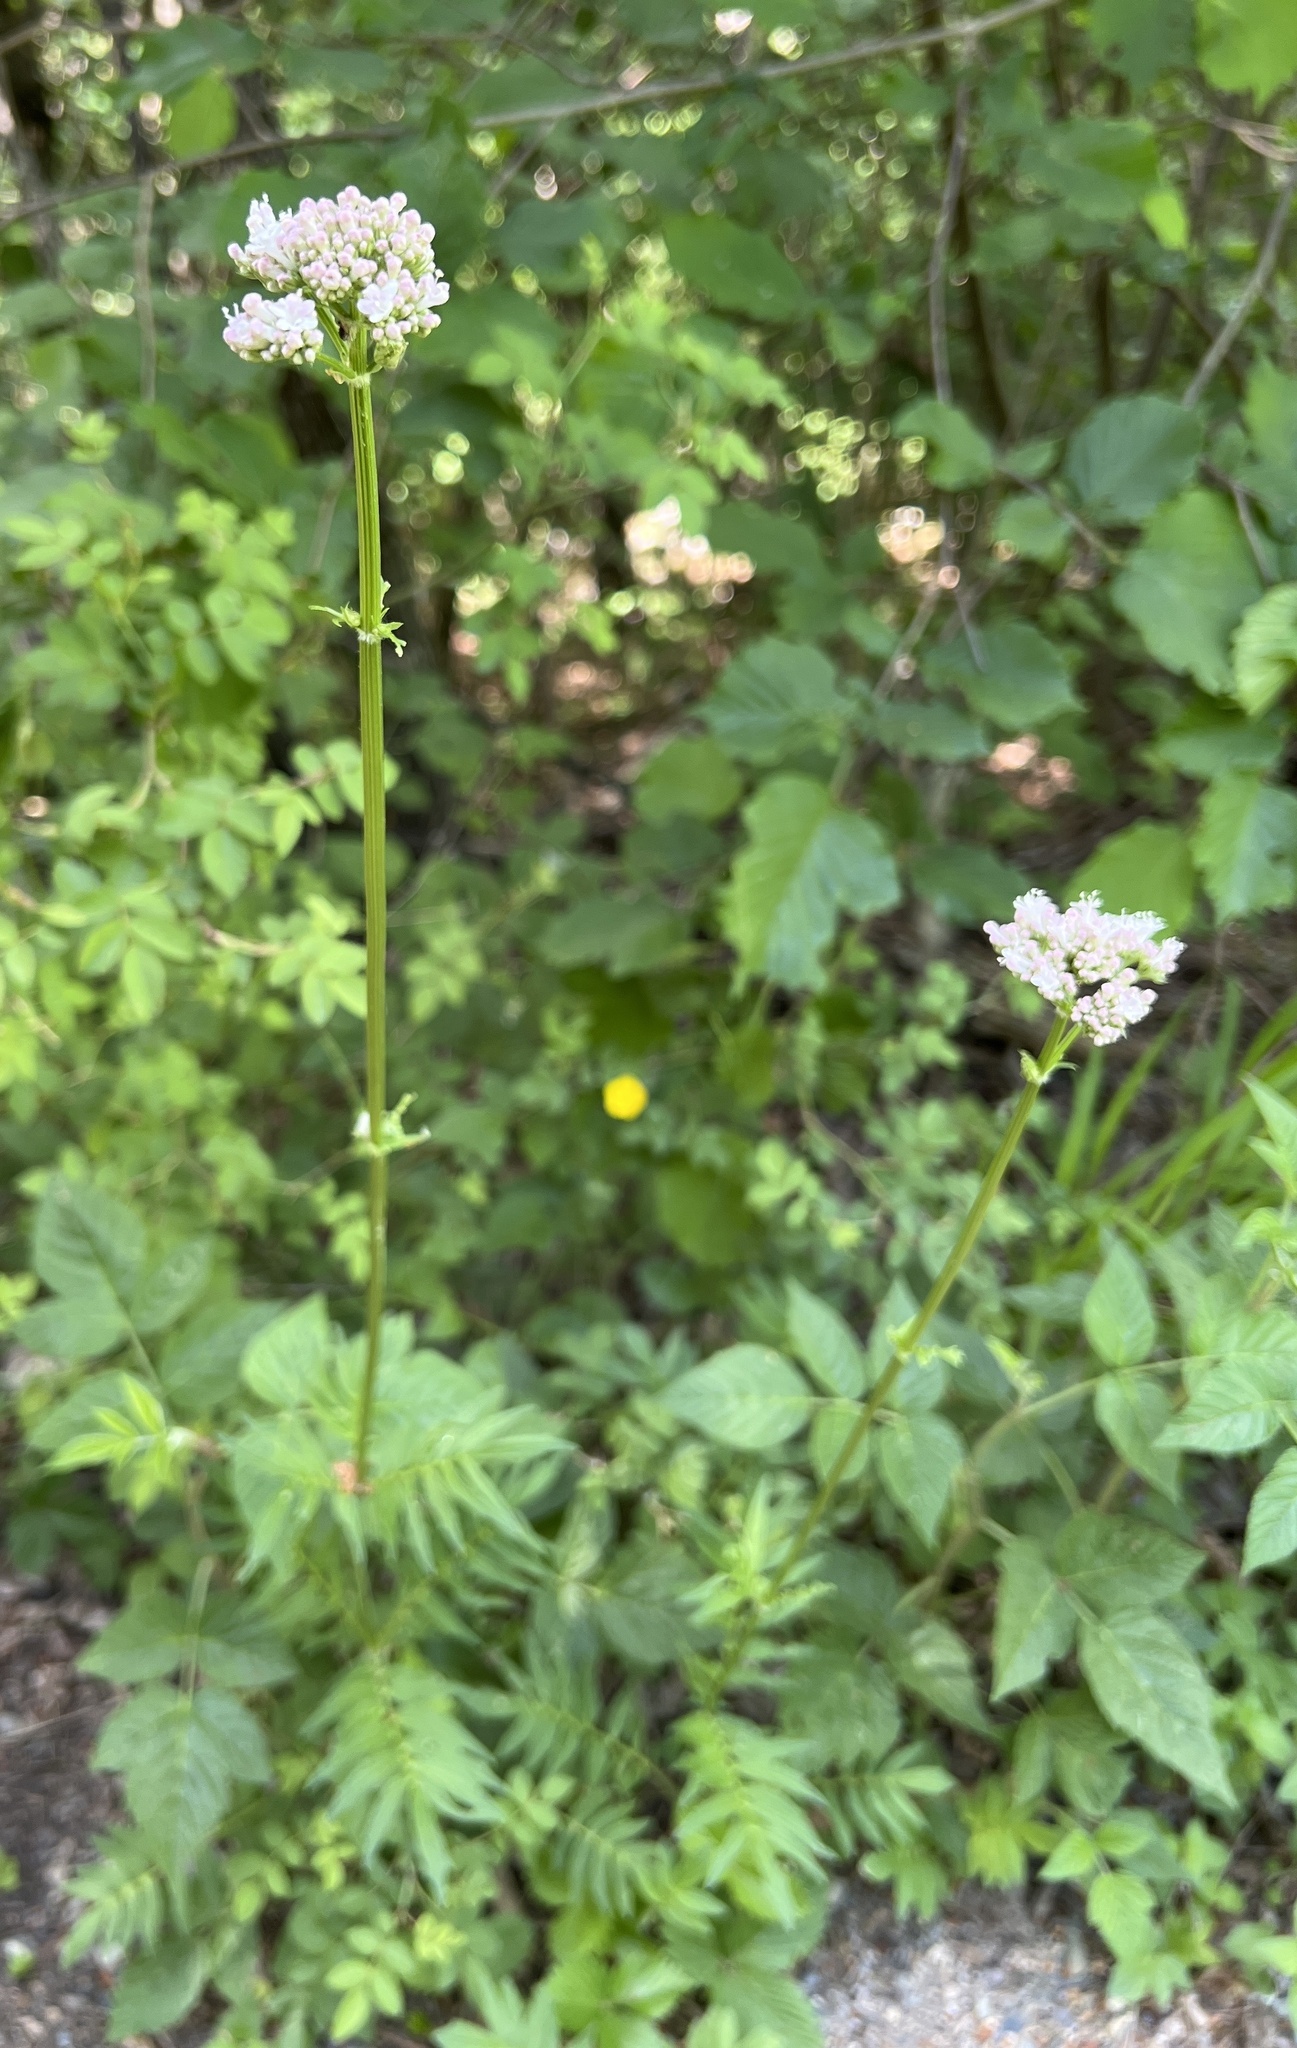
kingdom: Plantae
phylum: Tracheophyta
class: Magnoliopsida
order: Dipsacales
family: Caprifoliaceae
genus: Valeriana
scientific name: Valeriana officinalis
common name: Common valerian
